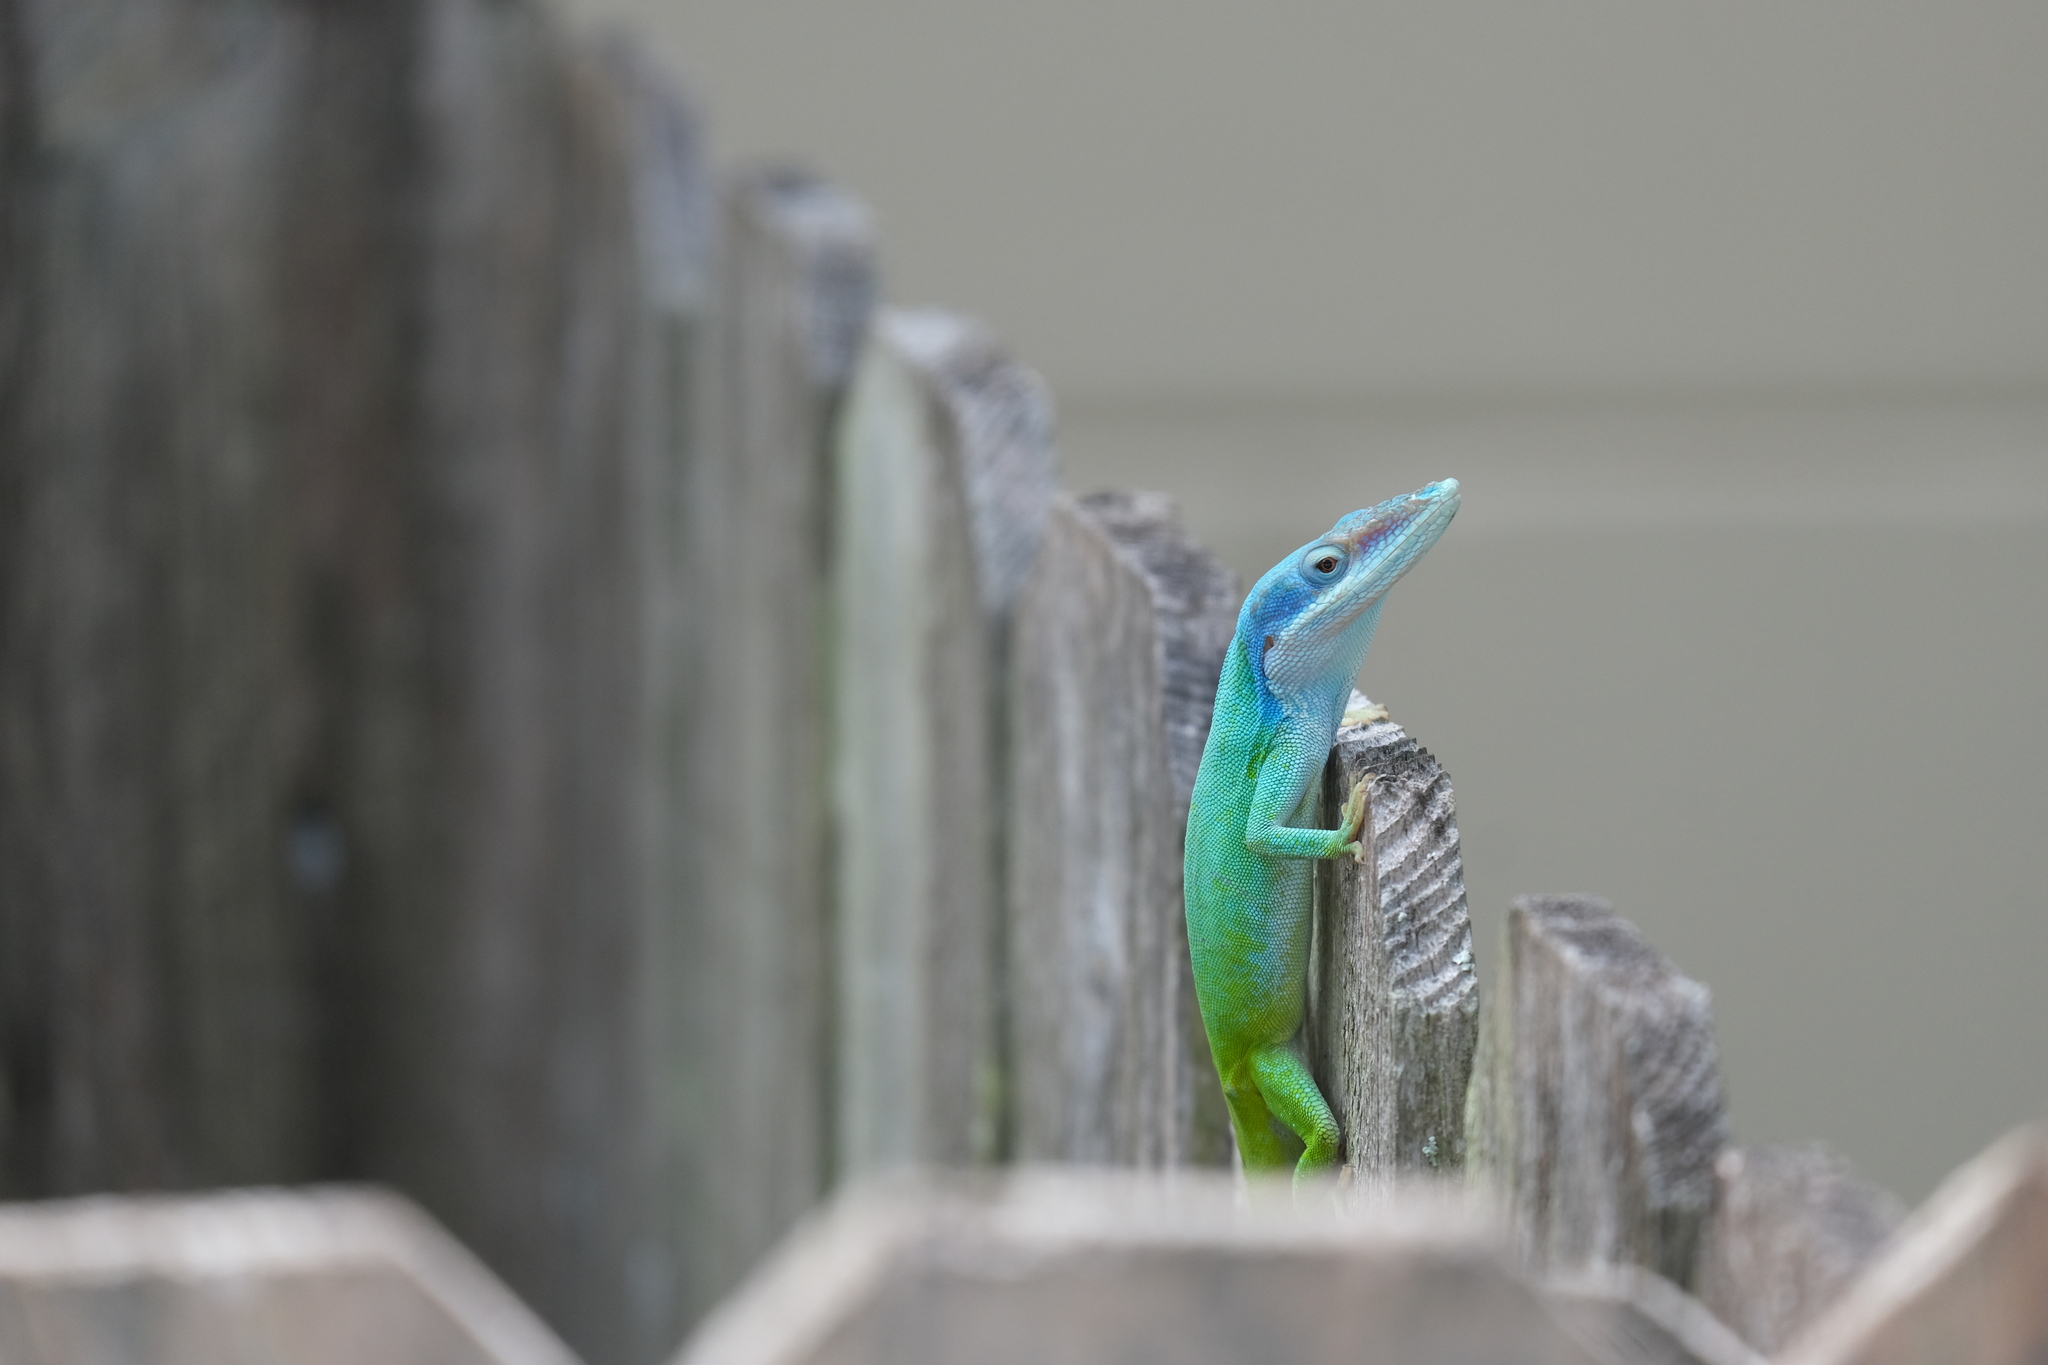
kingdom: Animalia
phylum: Chordata
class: Squamata
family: Dactyloidae
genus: Anolis
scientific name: Anolis allisoni
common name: Allison's anole
